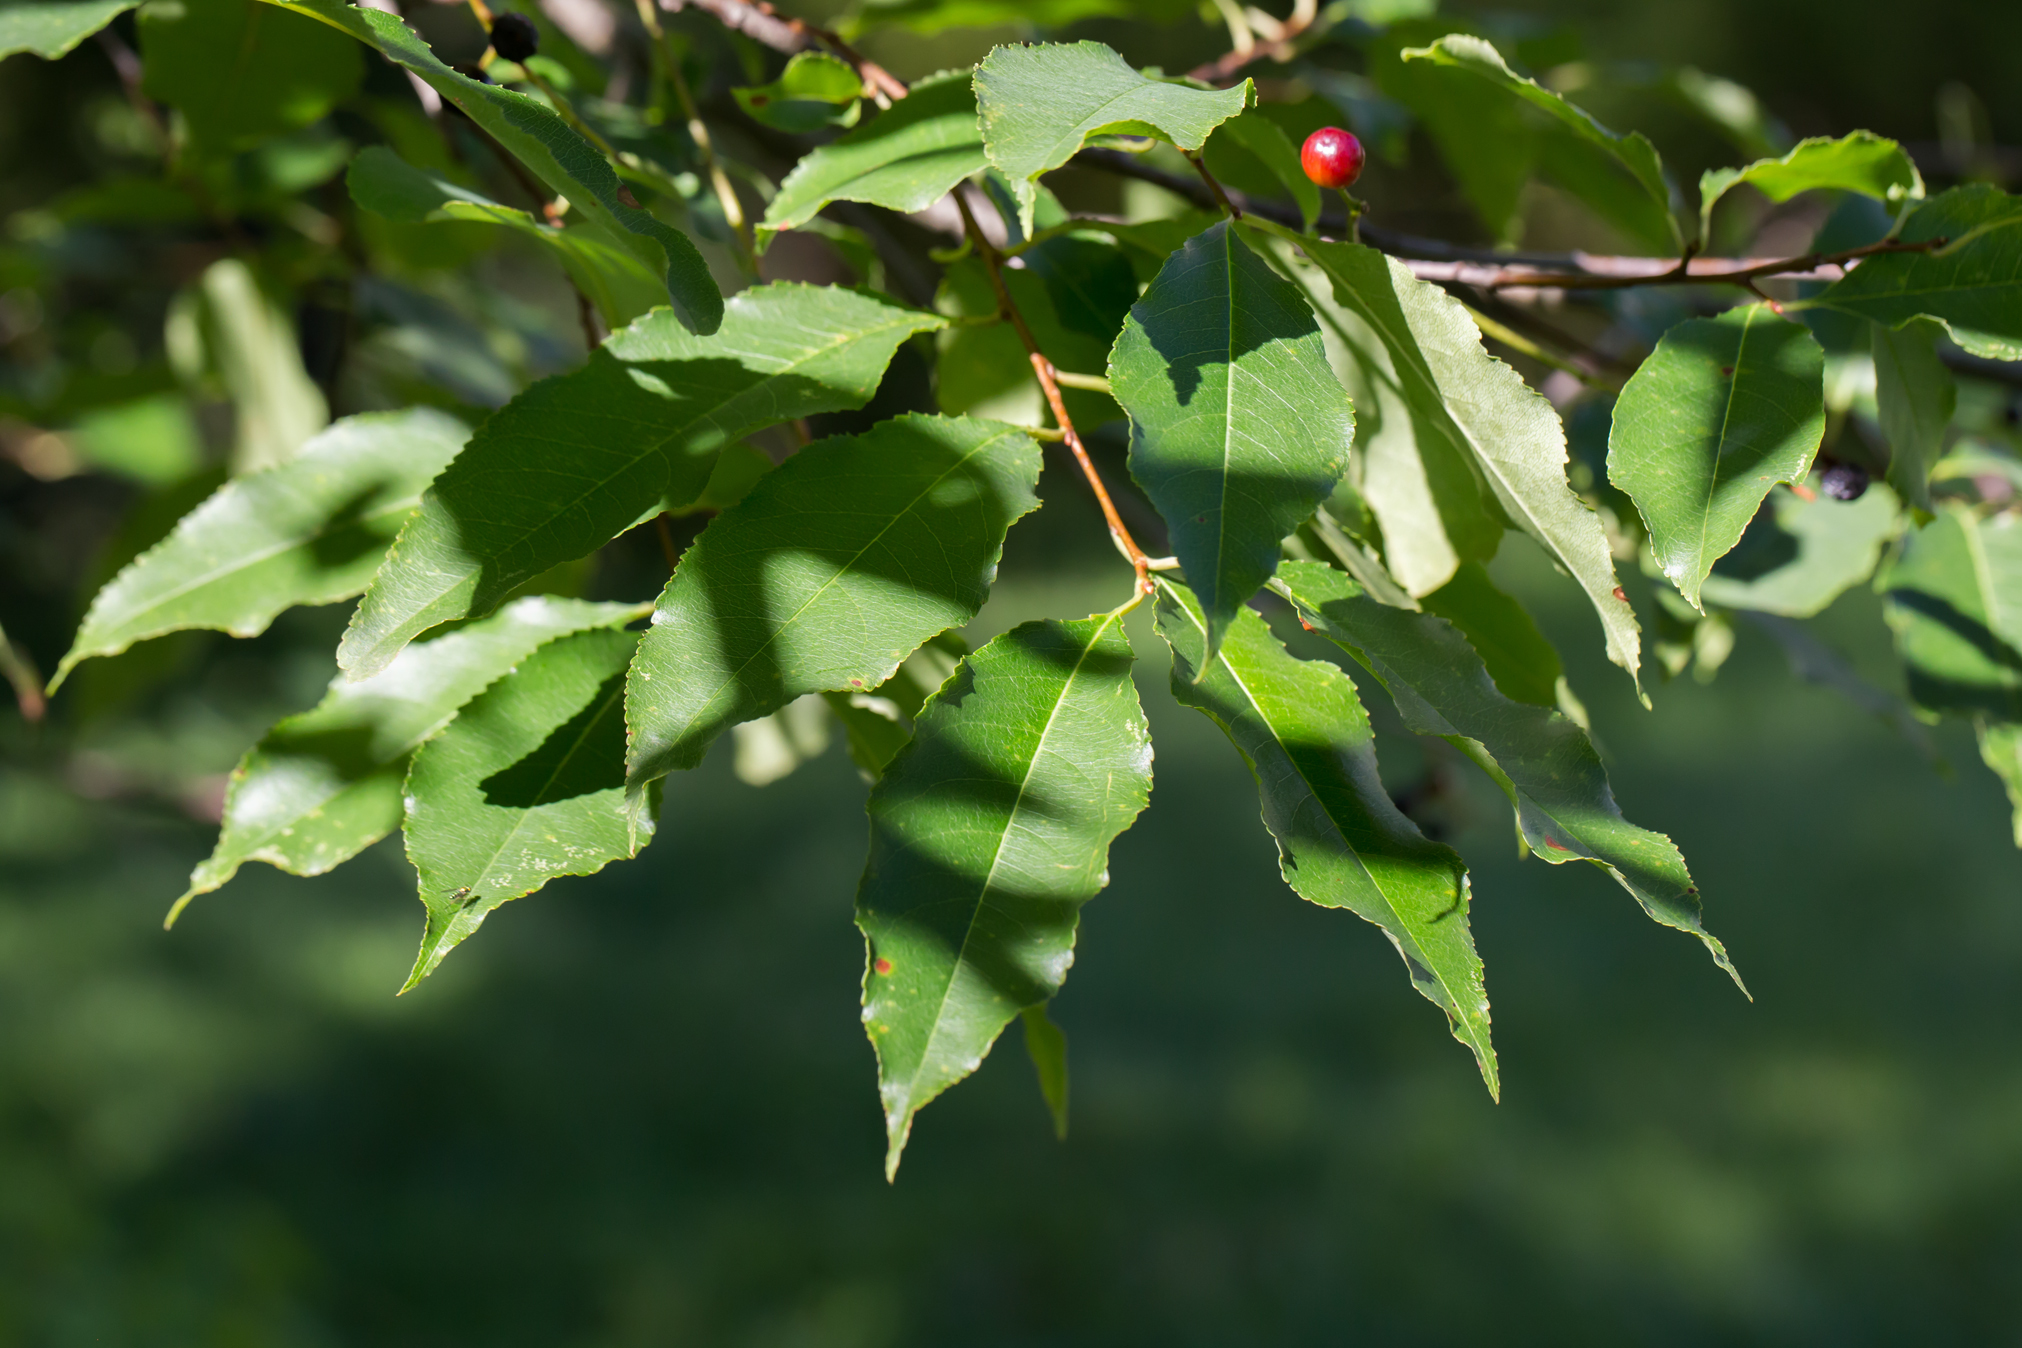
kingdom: Plantae
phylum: Tracheophyta
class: Magnoliopsida
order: Rosales
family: Rosaceae
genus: Prunus
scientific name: Prunus serotina
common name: Black cherry
